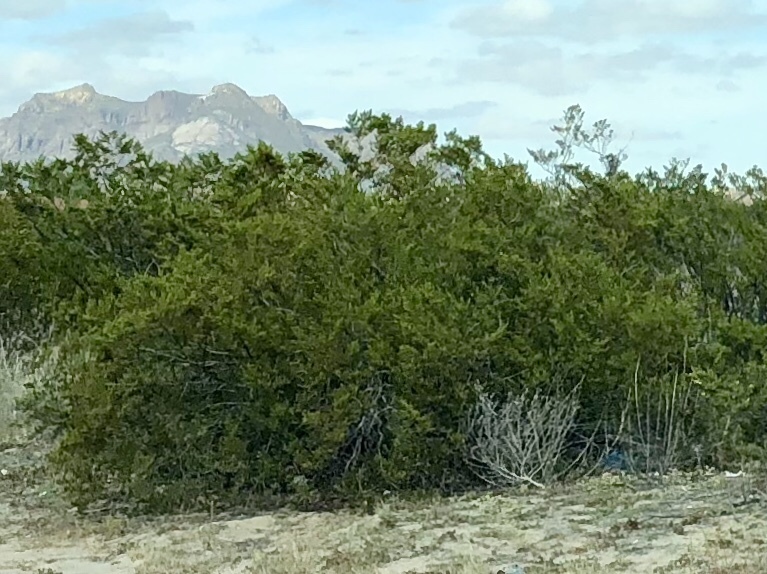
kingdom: Plantae
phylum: Tracheophyta
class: Magnoliopsida
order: Zygophyllales
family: Zygophyllaceae
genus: Larrea
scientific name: Larrea tridentata
